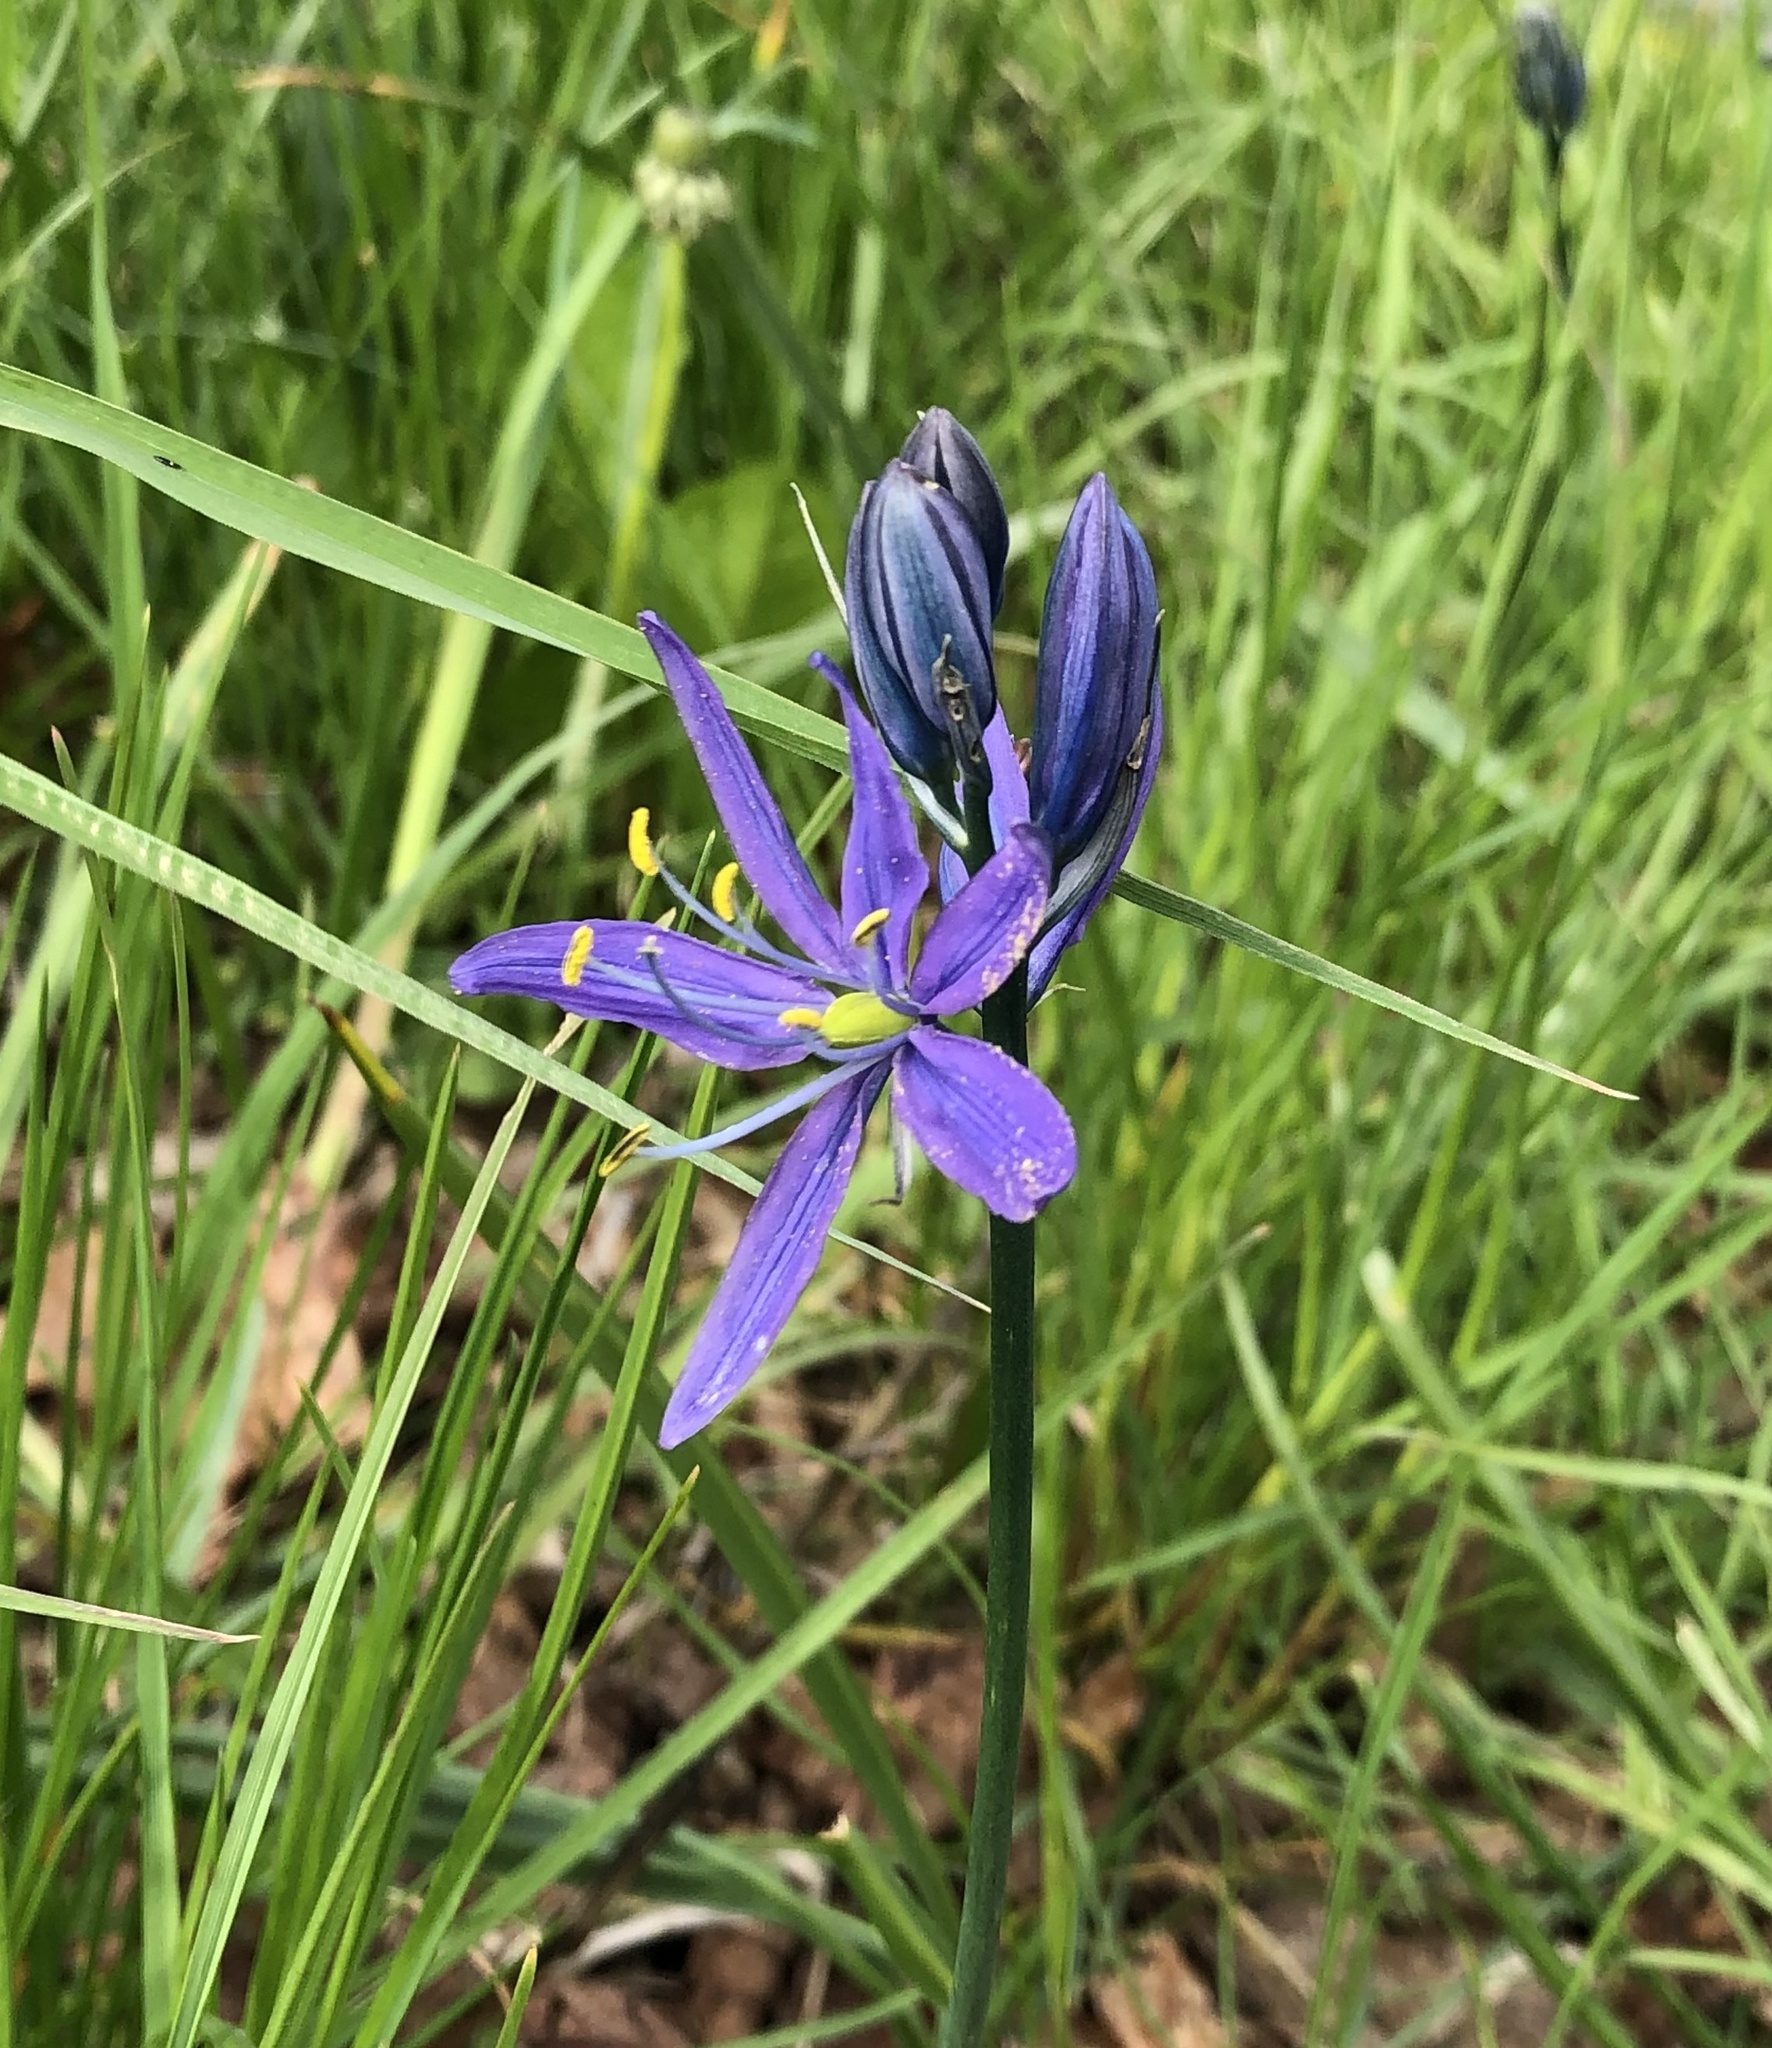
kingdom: Plantae
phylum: Tracheophyta
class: Liliopsida
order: Asparagales
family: Asparagaceae
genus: Camassia
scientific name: Camassia quamash
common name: Common camas
